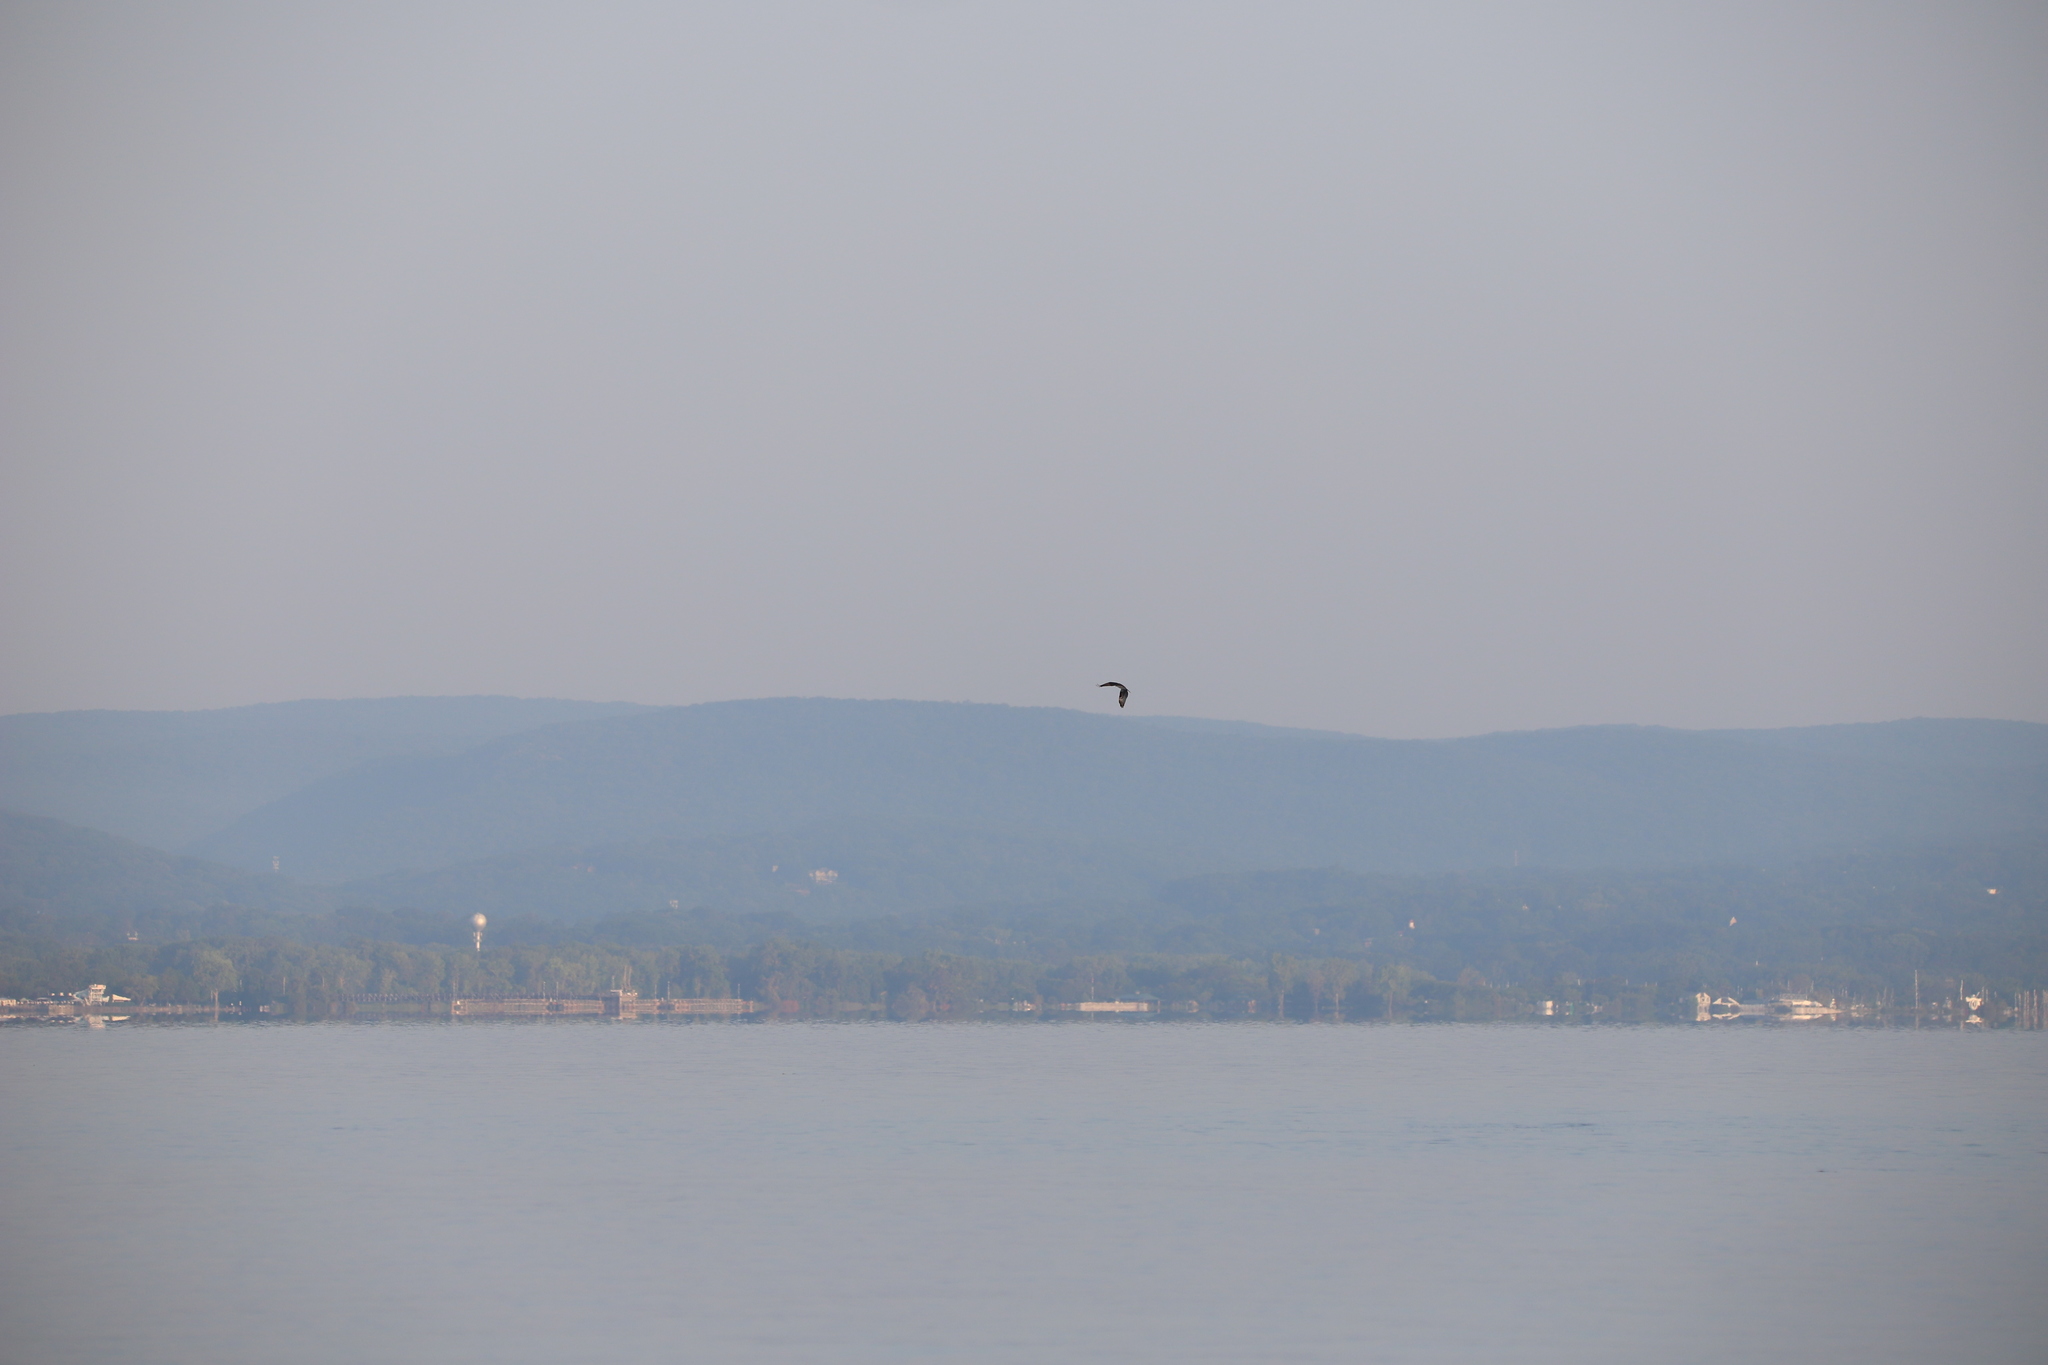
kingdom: Animalia
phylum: Chordata
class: Aves
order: Accipitriformes
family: Pandionidae
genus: Pandion
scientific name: Pandion haliaetus
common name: Osprey
